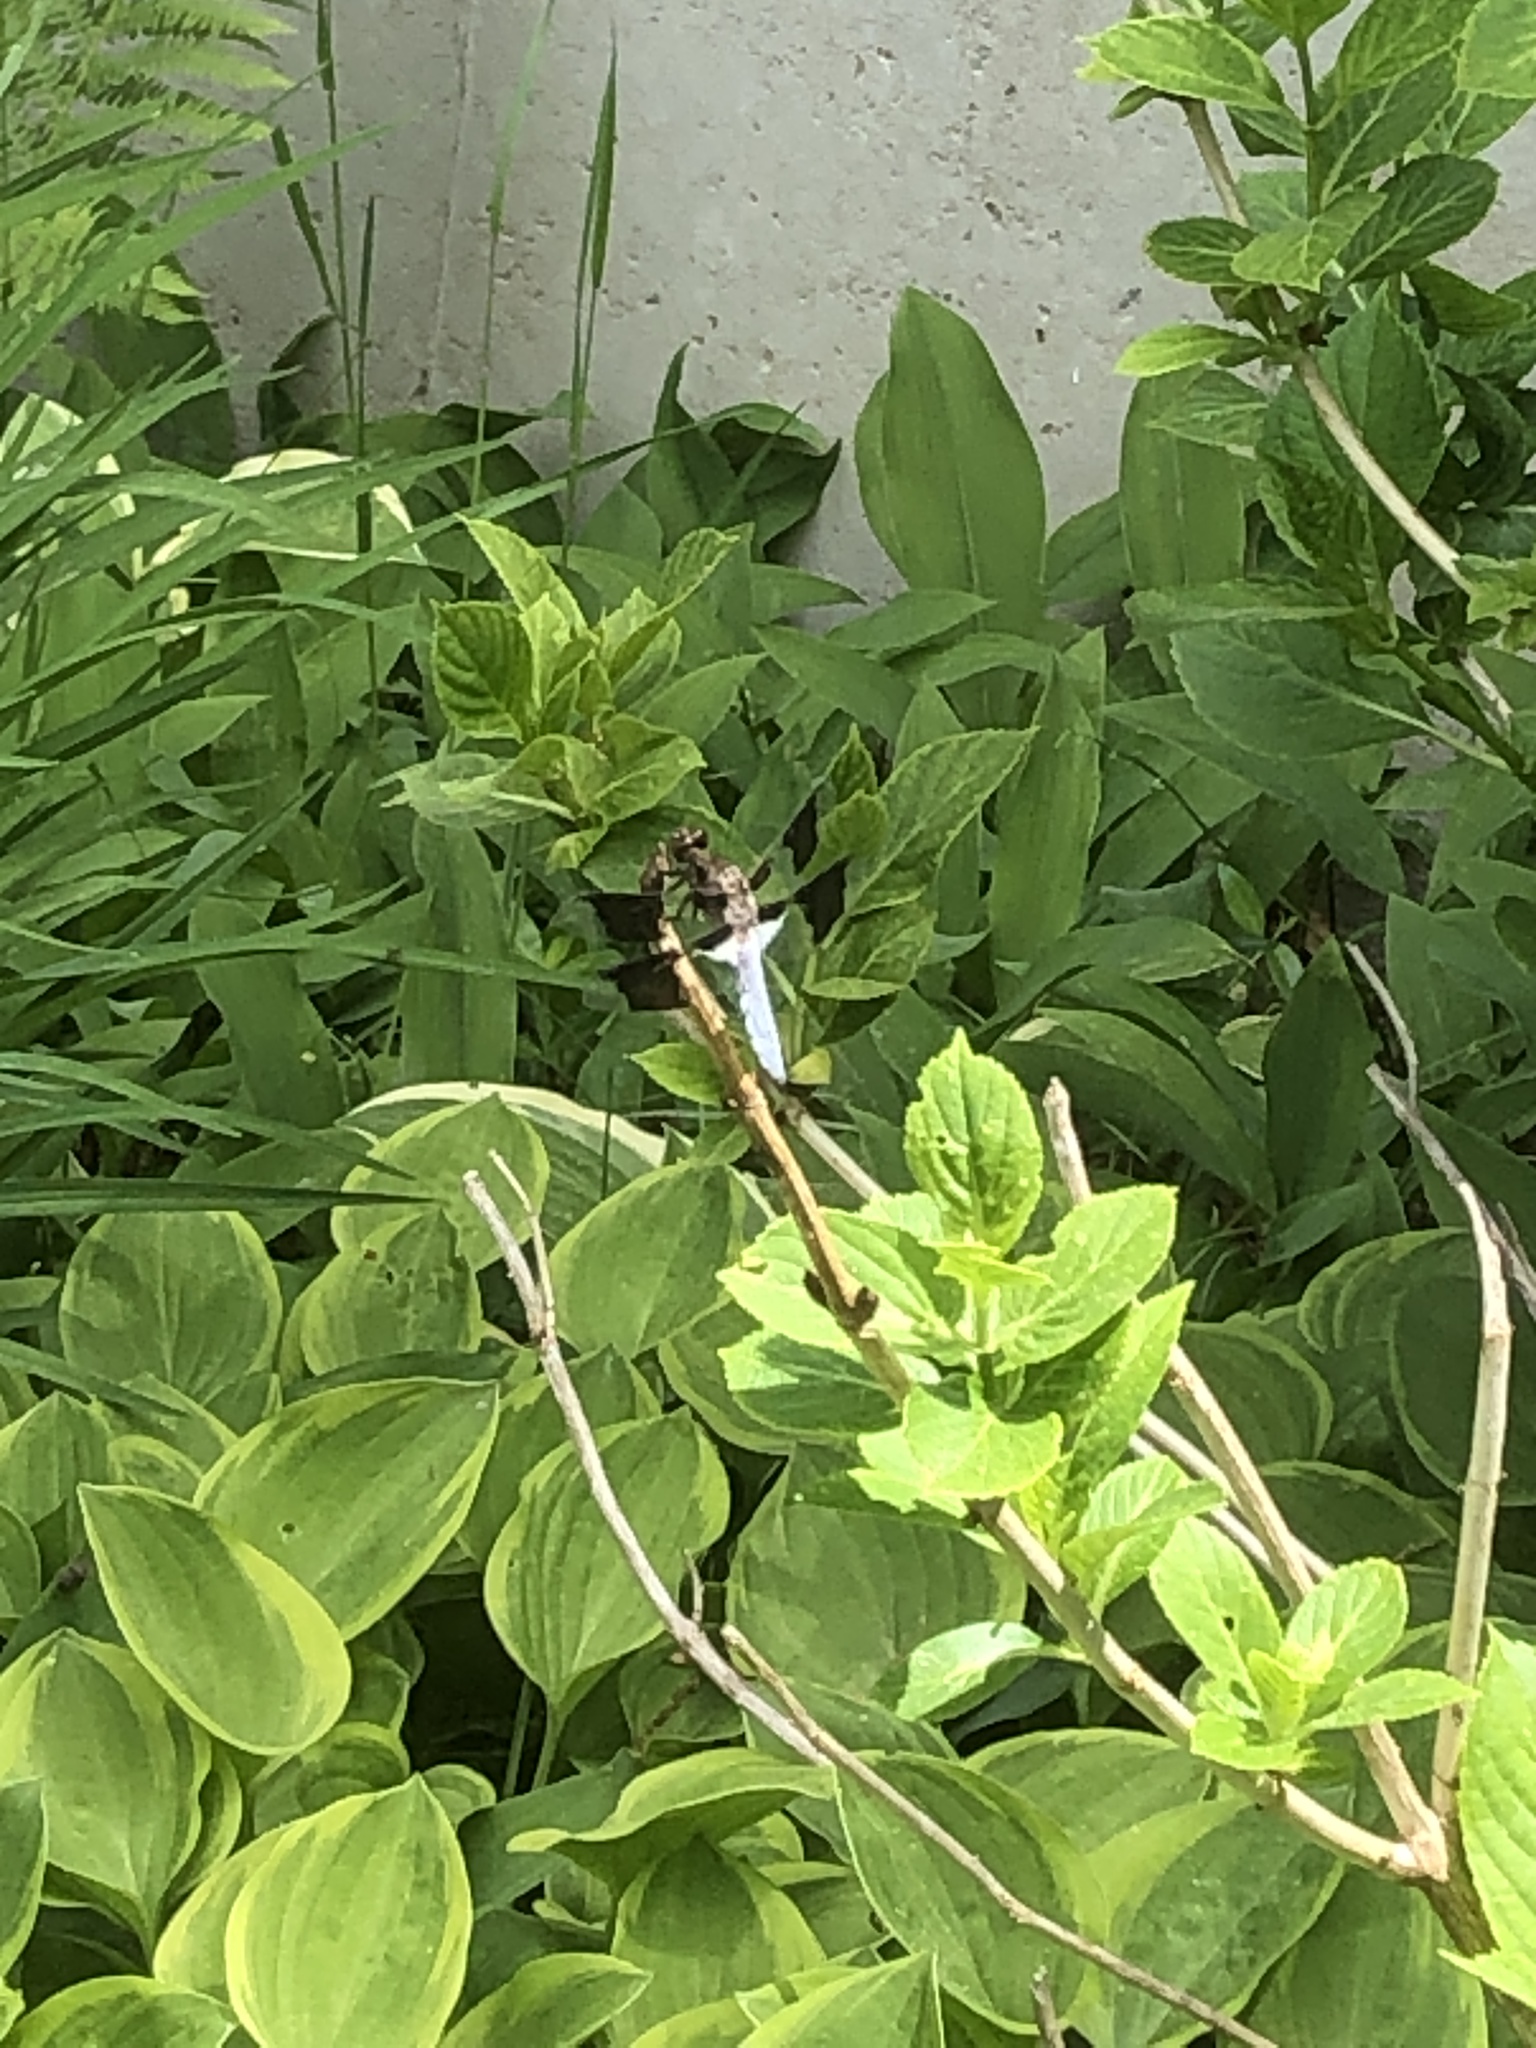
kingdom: Animalia
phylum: Arthropoda
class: Insecta
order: Odonata
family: Libellulidae
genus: Plathemis
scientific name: Plathemis lydia
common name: Common whitetail
